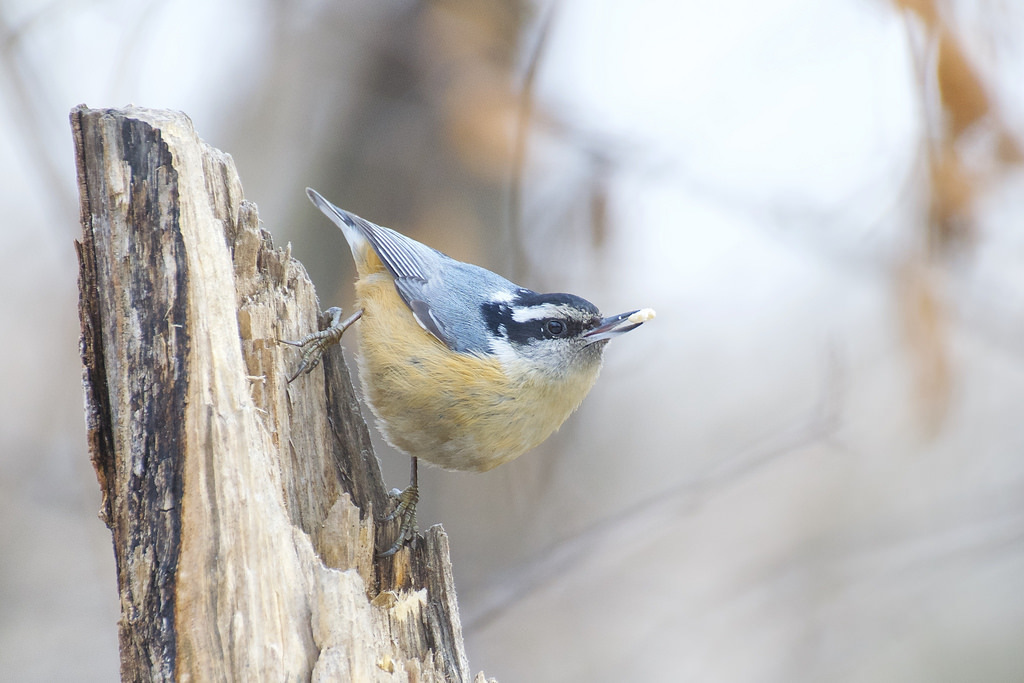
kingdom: Animalia
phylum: Chordata
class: Aves
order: Passeriformes
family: Sittidae
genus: Sitta
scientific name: Sitta canadensis
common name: Red-breasted nuthatch
